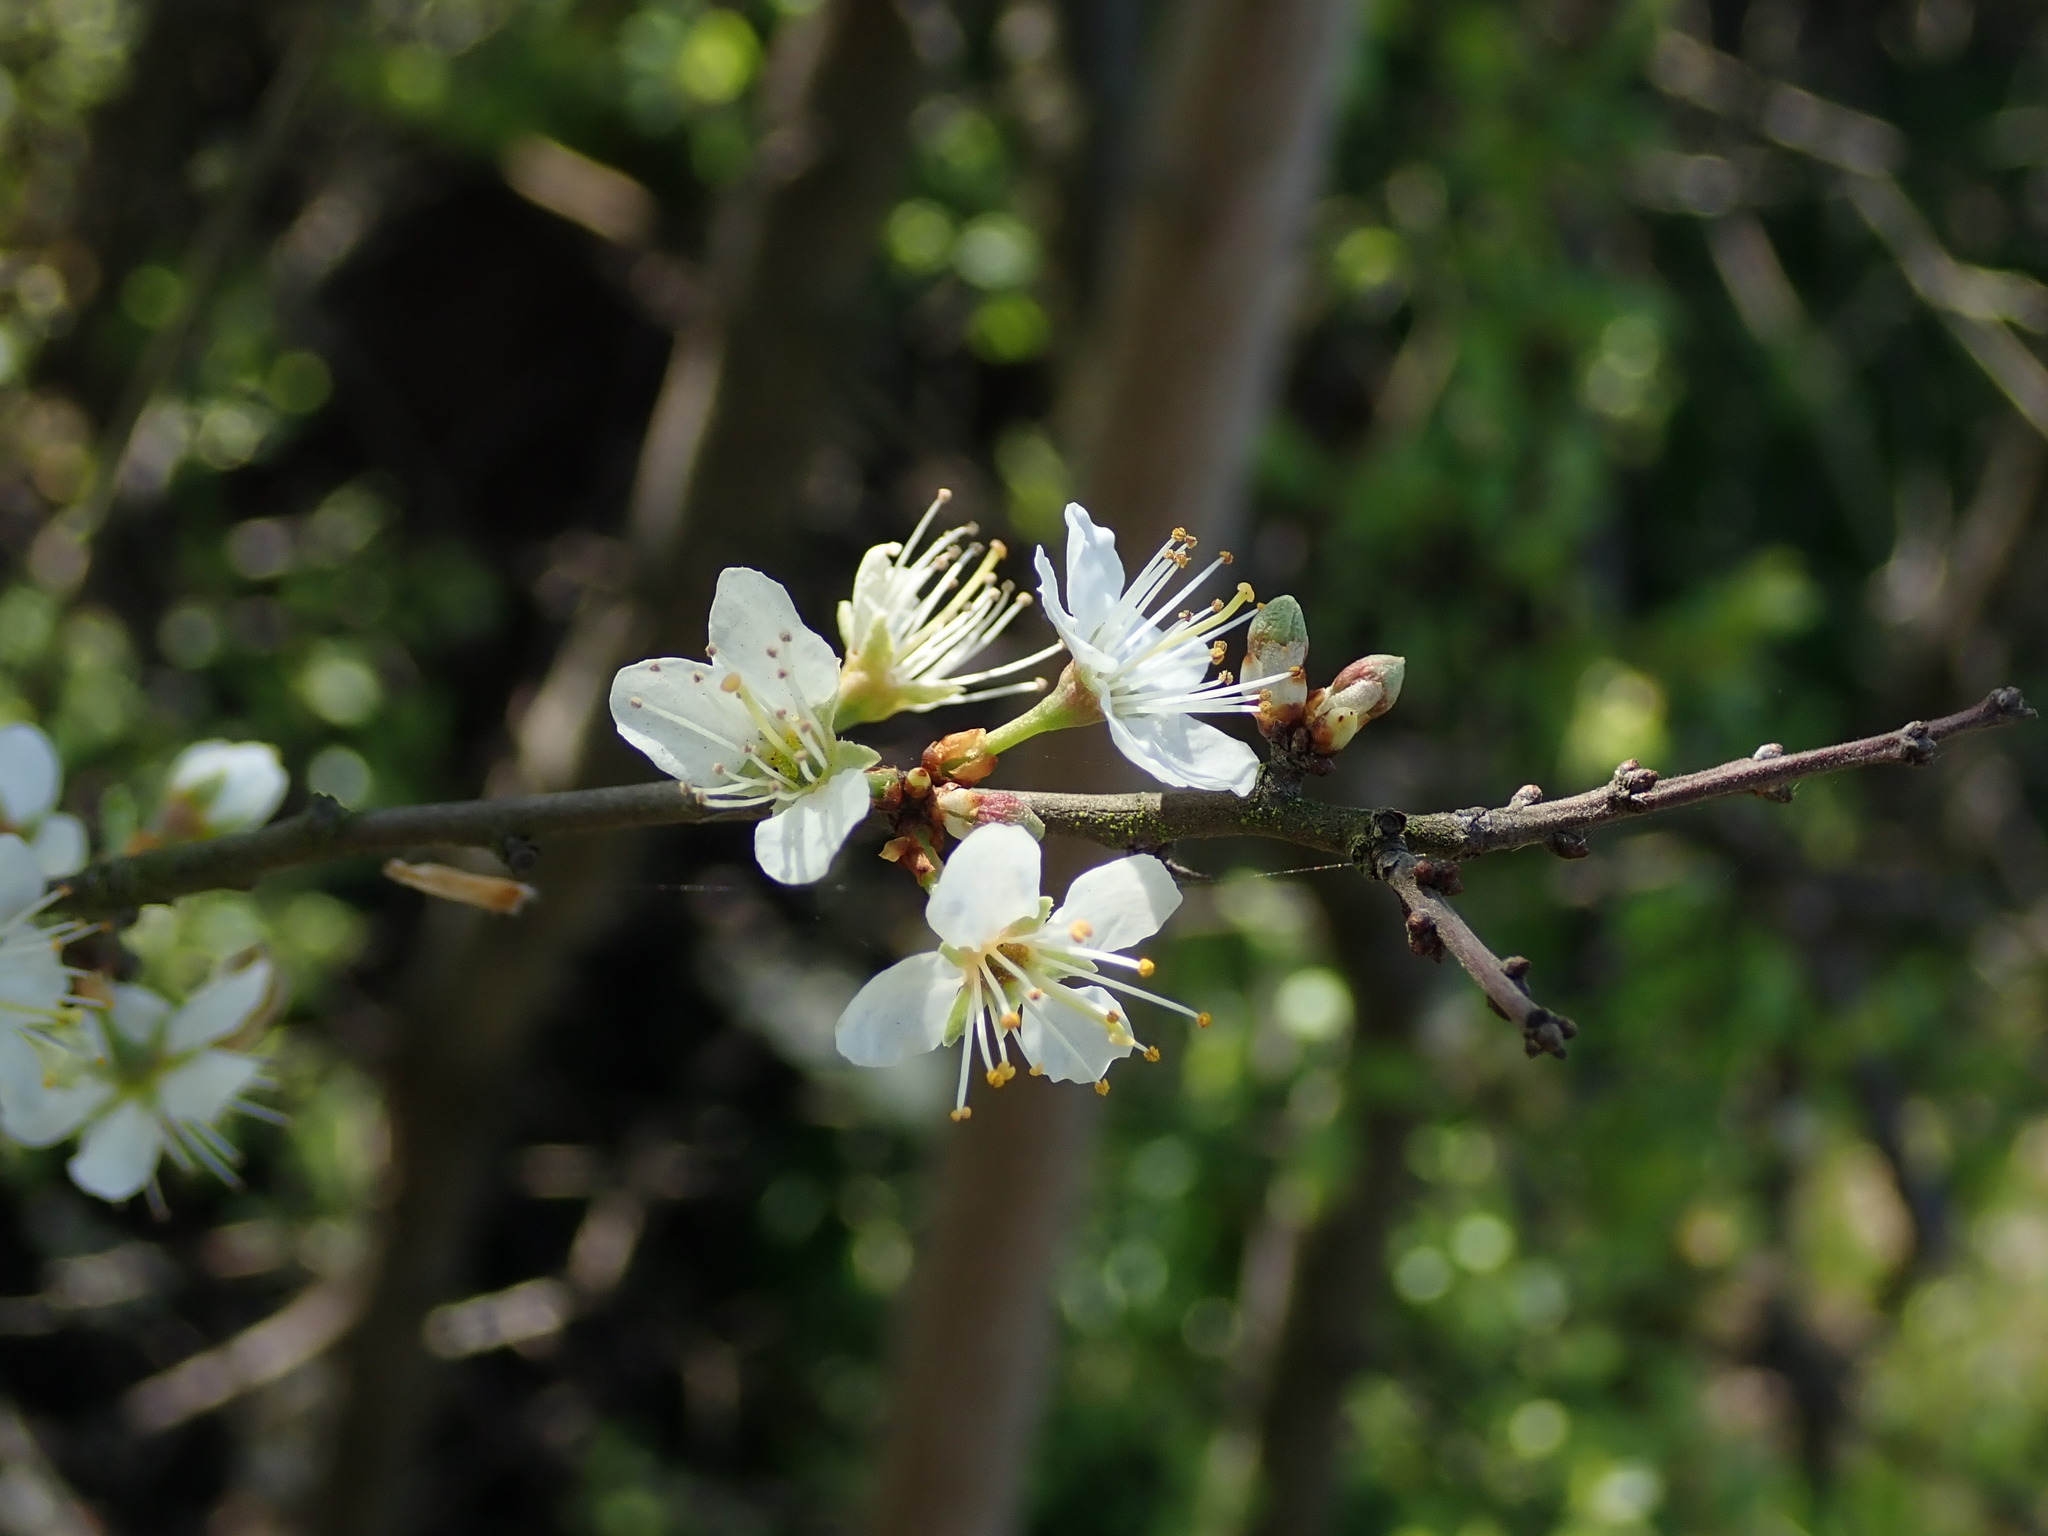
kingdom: Plantae
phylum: Tracheophyta
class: Magnoliopsida
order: Rosales
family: Rosaceae
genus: Prunus
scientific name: Prunus spinosa
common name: Blackthorn
